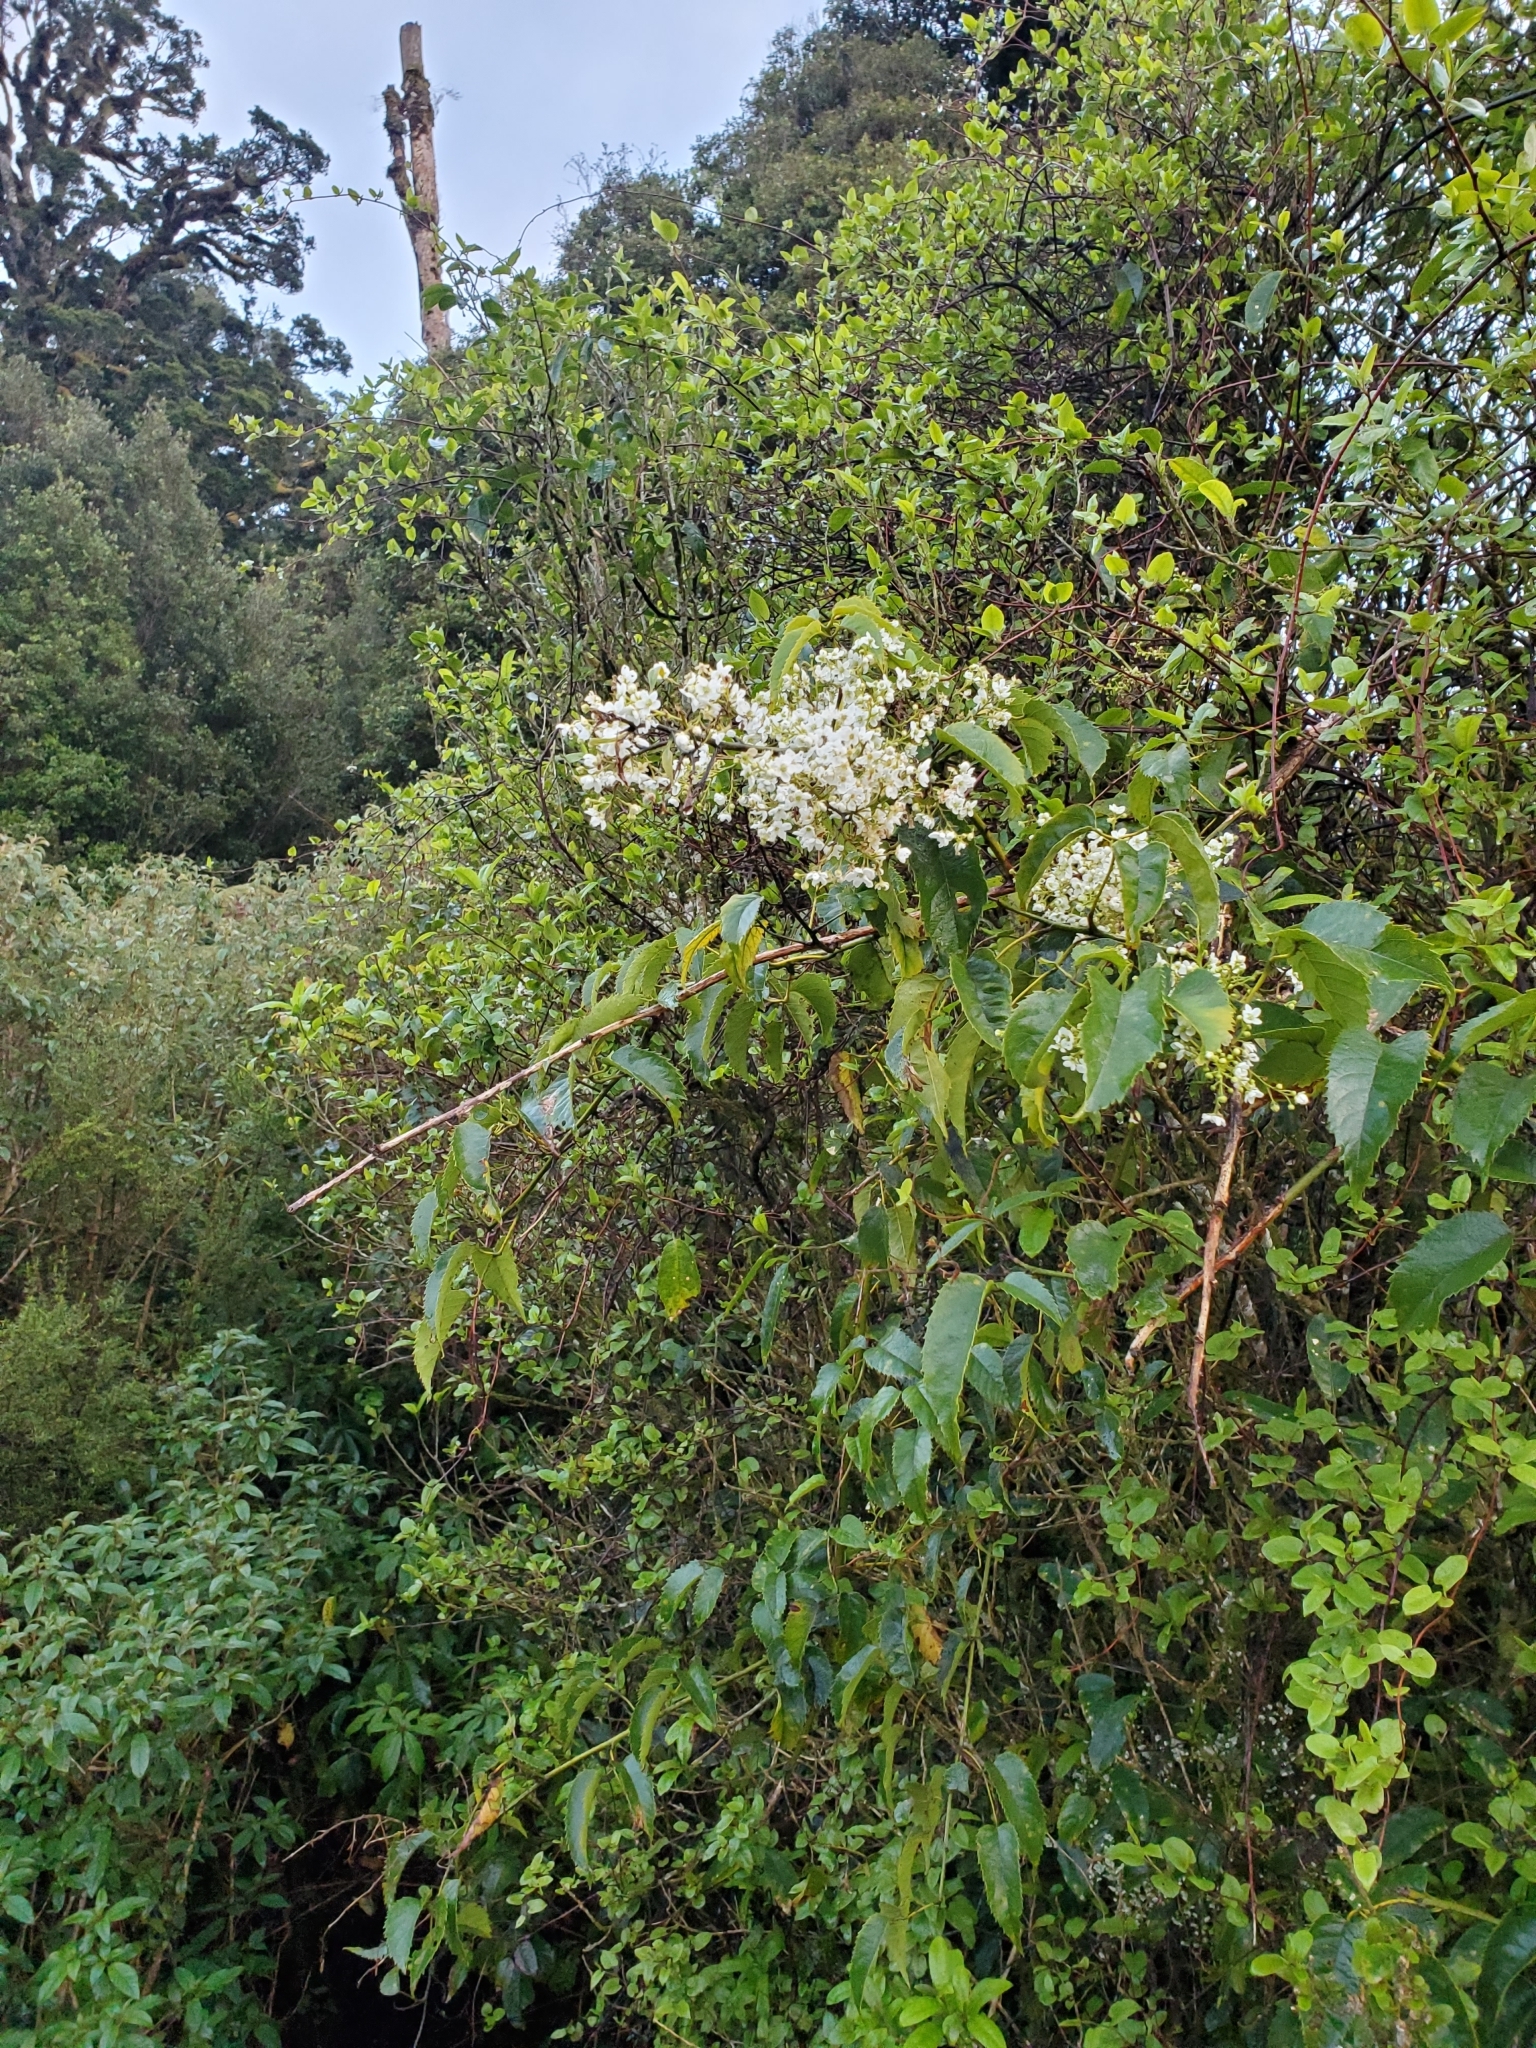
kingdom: Plantae
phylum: Tracheophyta
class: Magnoliopsida
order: Rosales
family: Rosaceae
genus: Rubus
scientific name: Rubus cissoides
